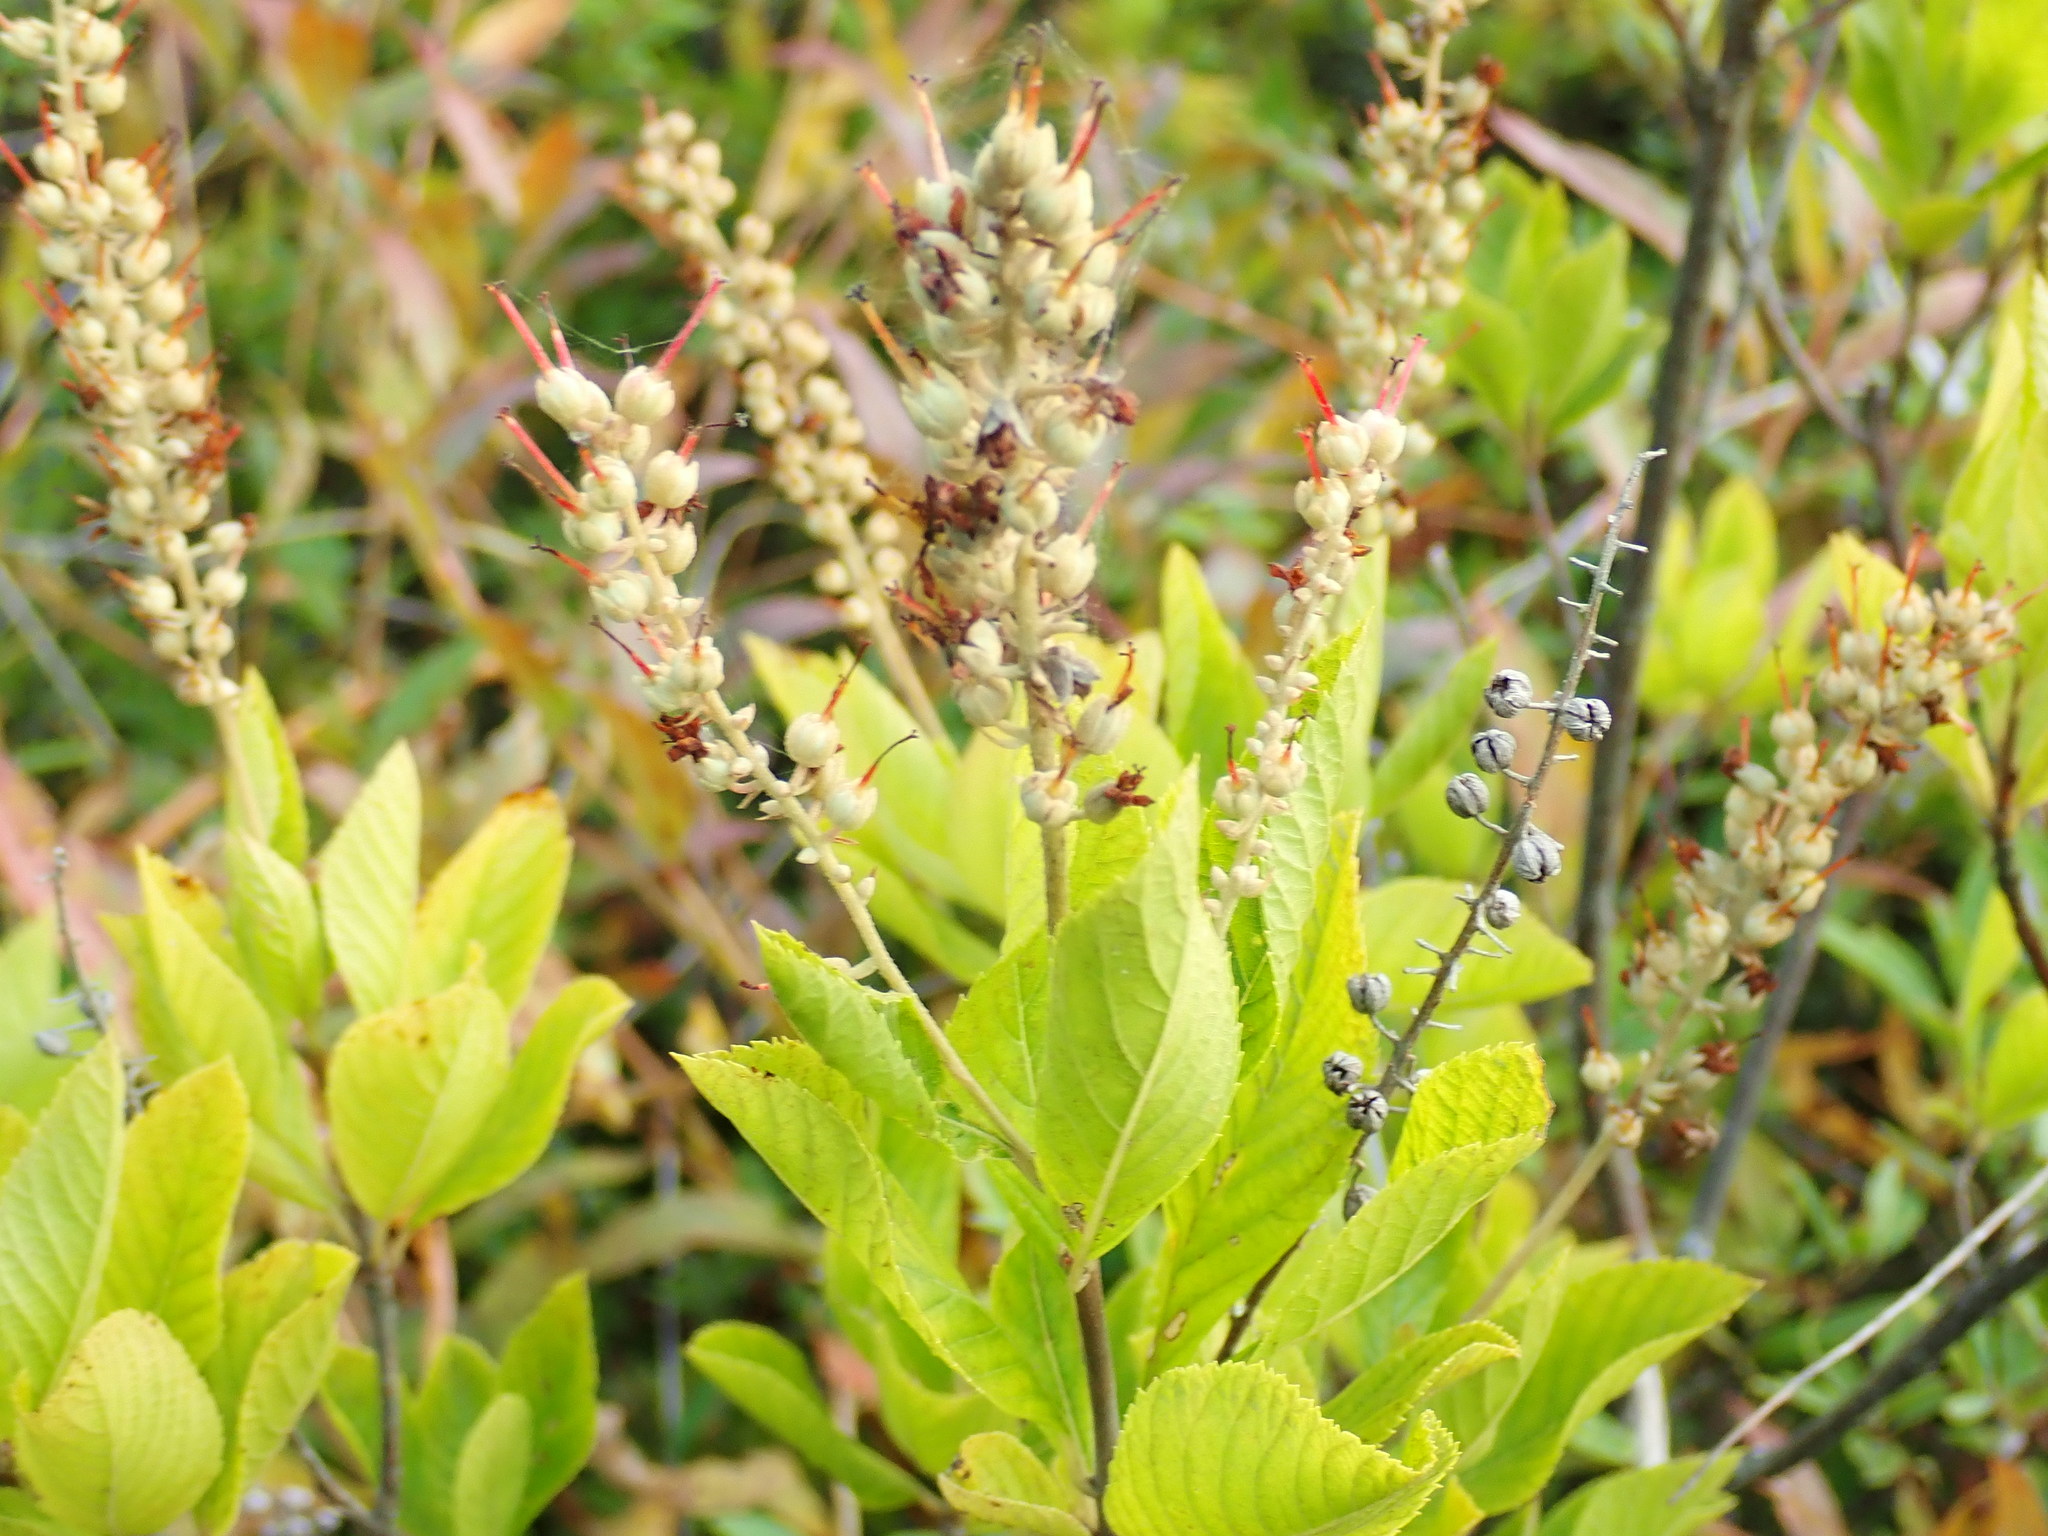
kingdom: Plantae
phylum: Tracheophyta
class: Magnoliopsida
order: Ericales
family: Clethraceae
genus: Clethra
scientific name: Clethra alnifolia
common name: Sweet pepperbush
